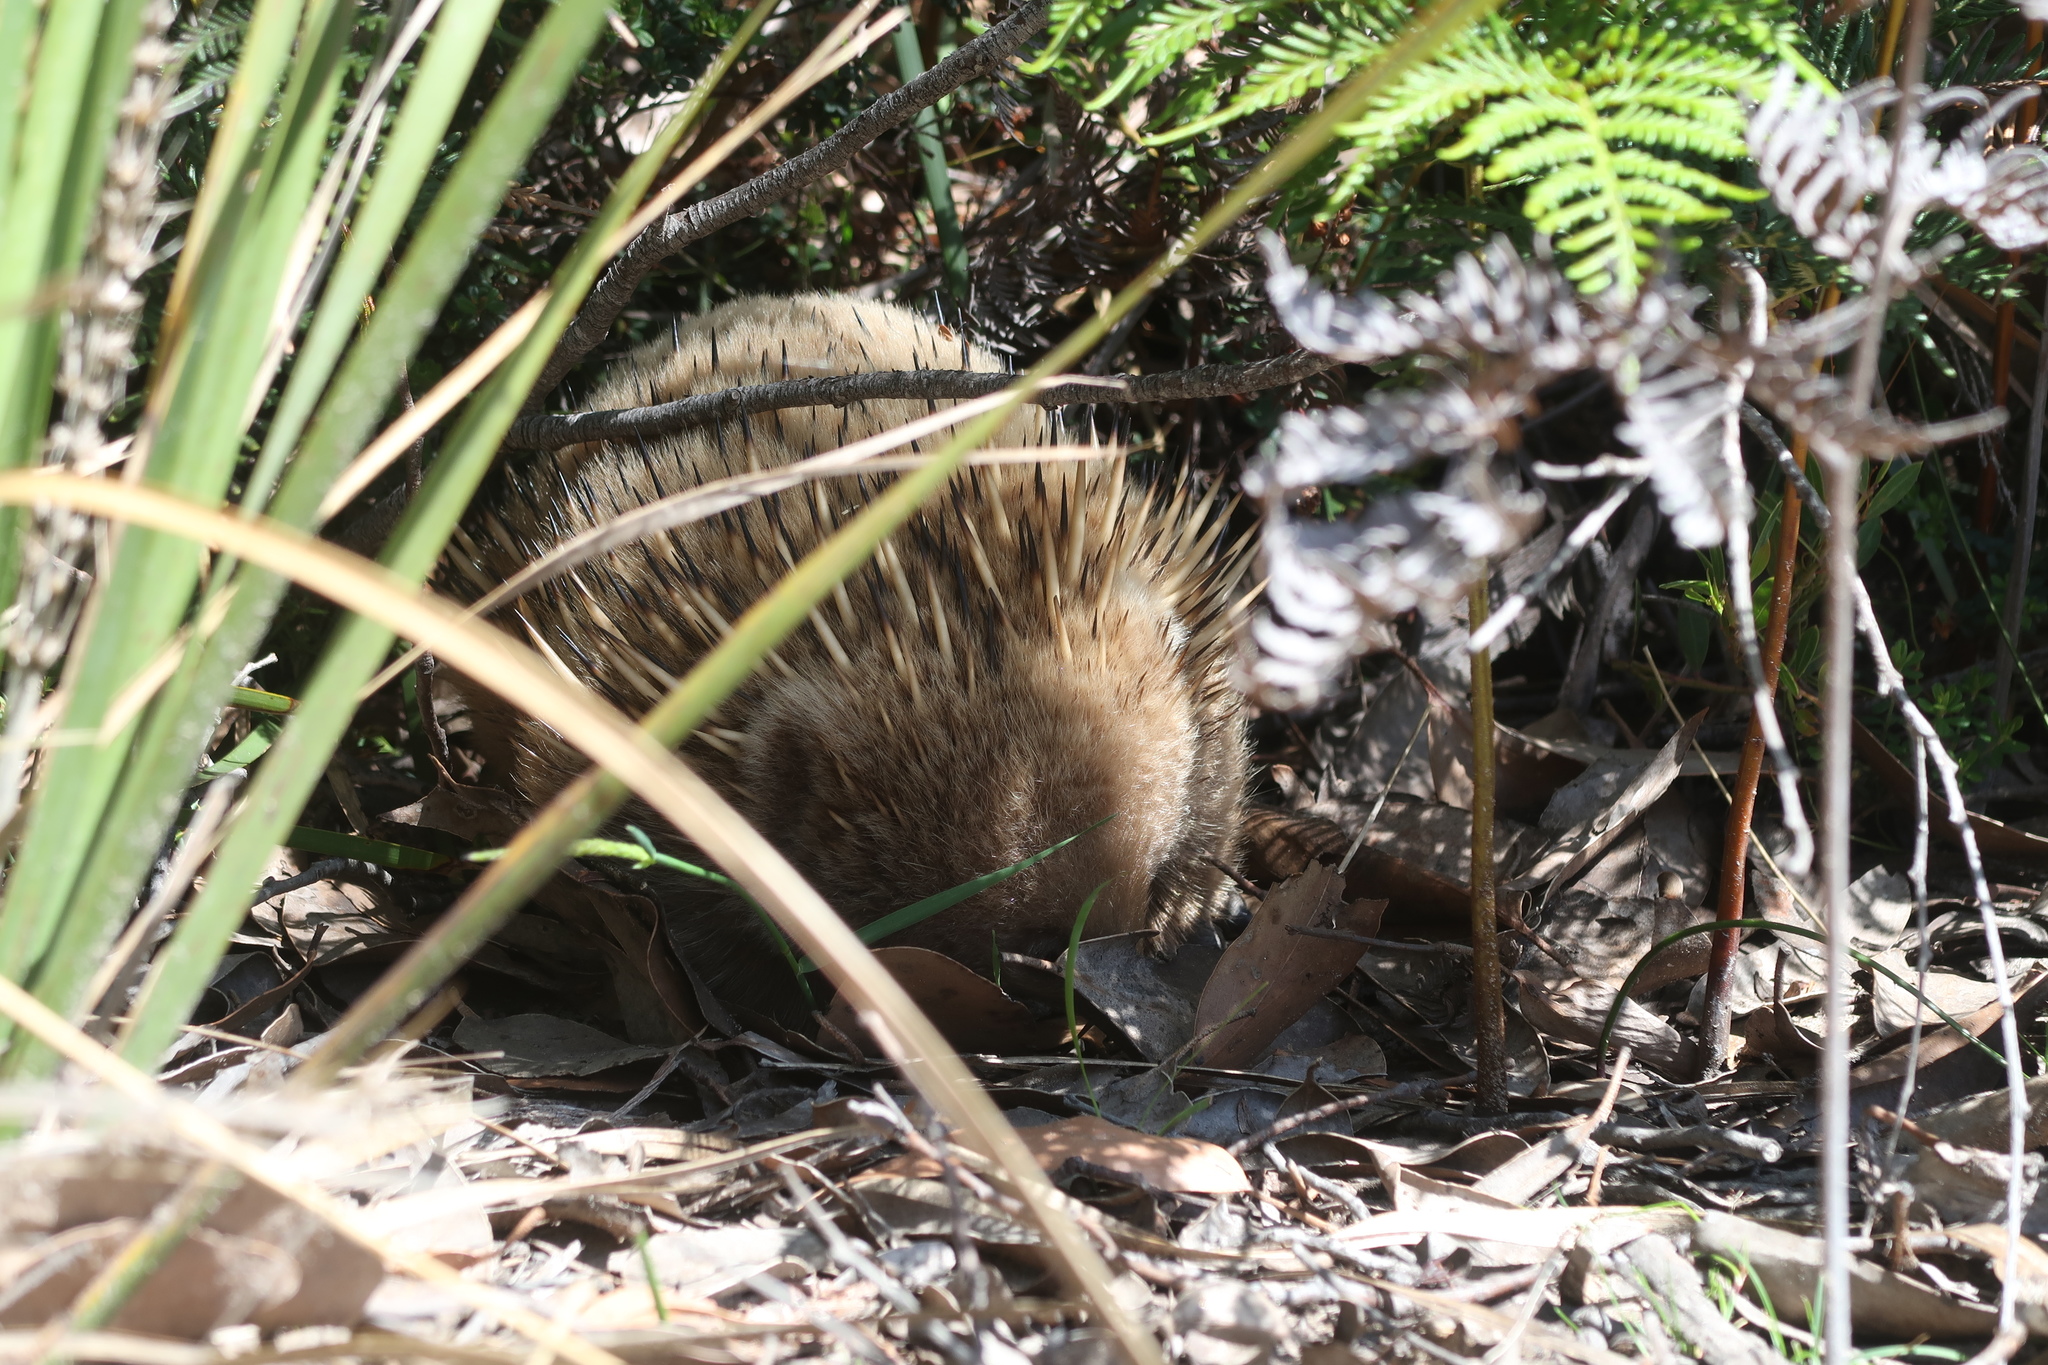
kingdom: Animalia
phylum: Chordata
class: Mammalia
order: Monotremata
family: Tachyglossidae
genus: Tachyglossus
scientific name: Tachyglossus aculeatus
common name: Short-beaked echidna
